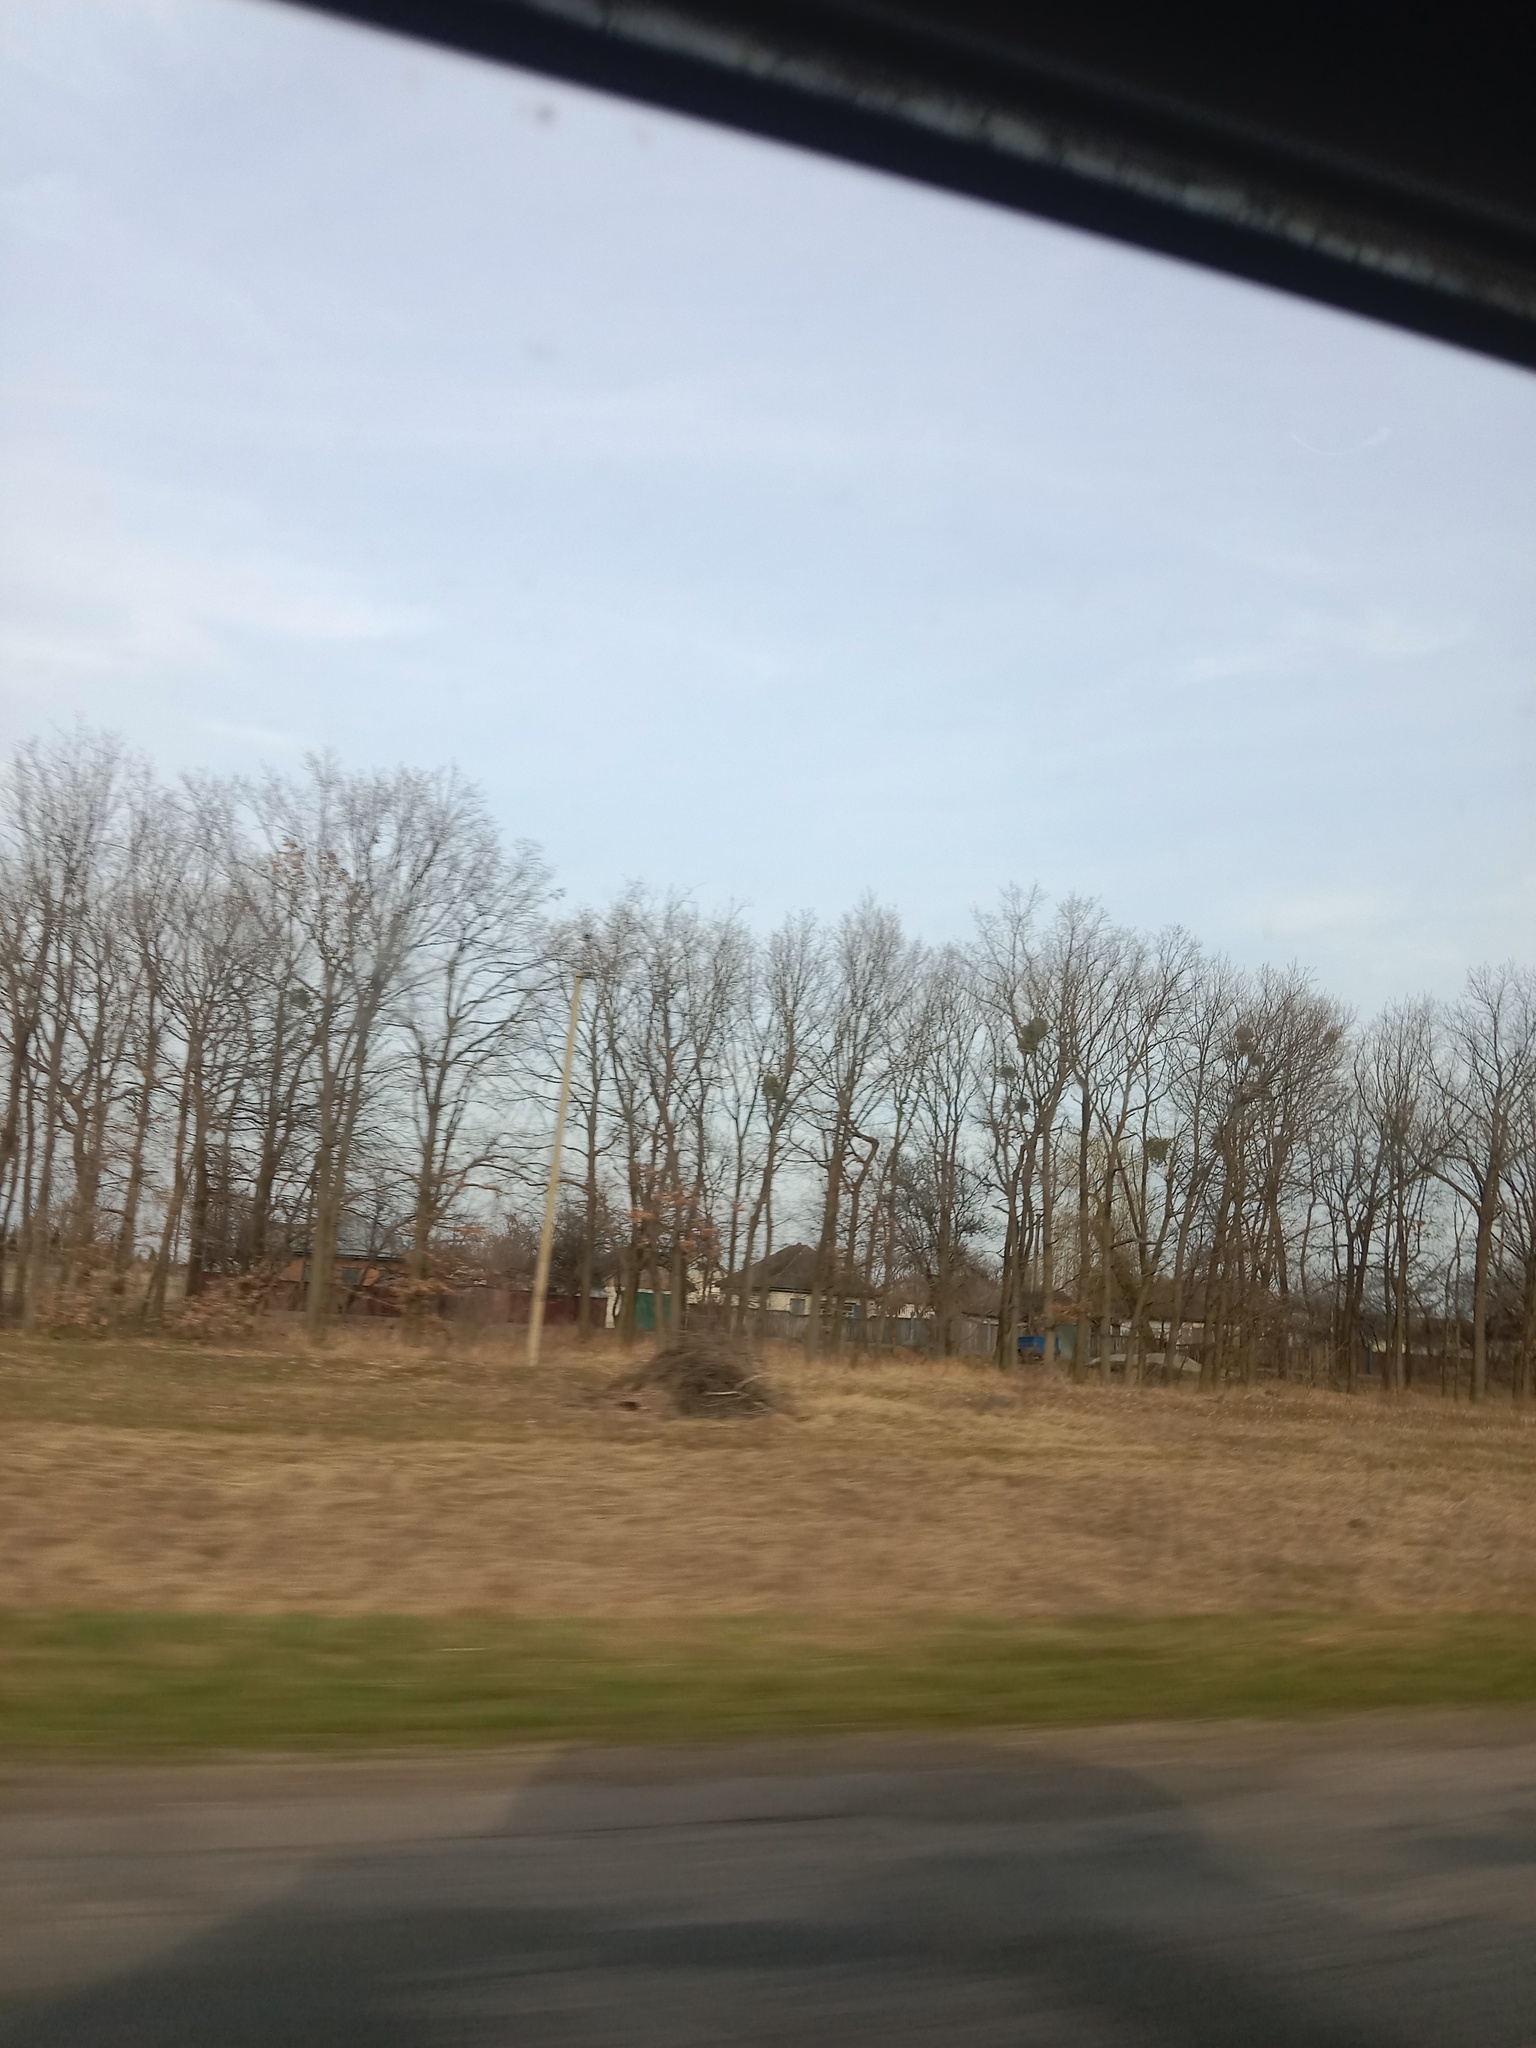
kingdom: Plantae
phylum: Tracheophyta
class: Magnoliopsida
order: Santalales
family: Viscaceae
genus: Viscum
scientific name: Viscum album
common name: Mistletoe
